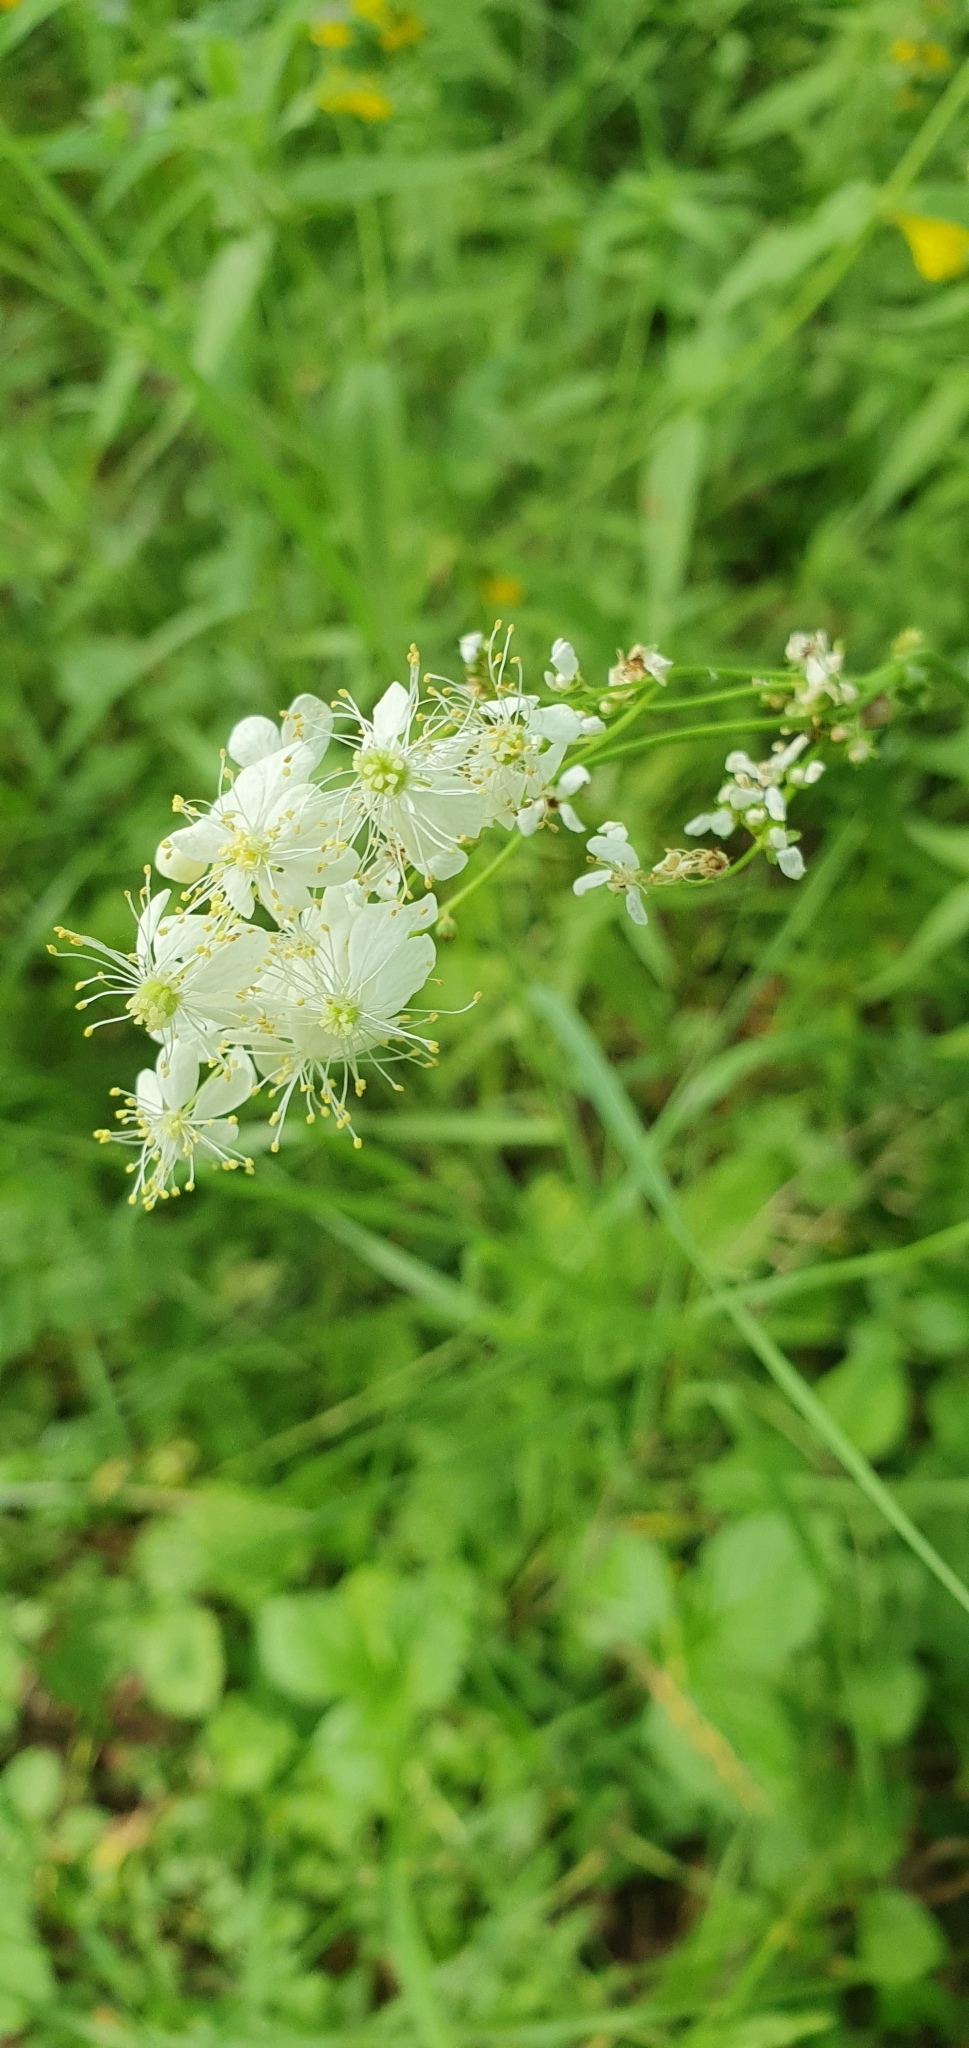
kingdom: Plantae
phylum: Tracheophyta
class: Magnoliopsida
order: Rosales
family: Rosaceae
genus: Filipendula
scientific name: Filipendula vulgaris
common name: Dropwort
